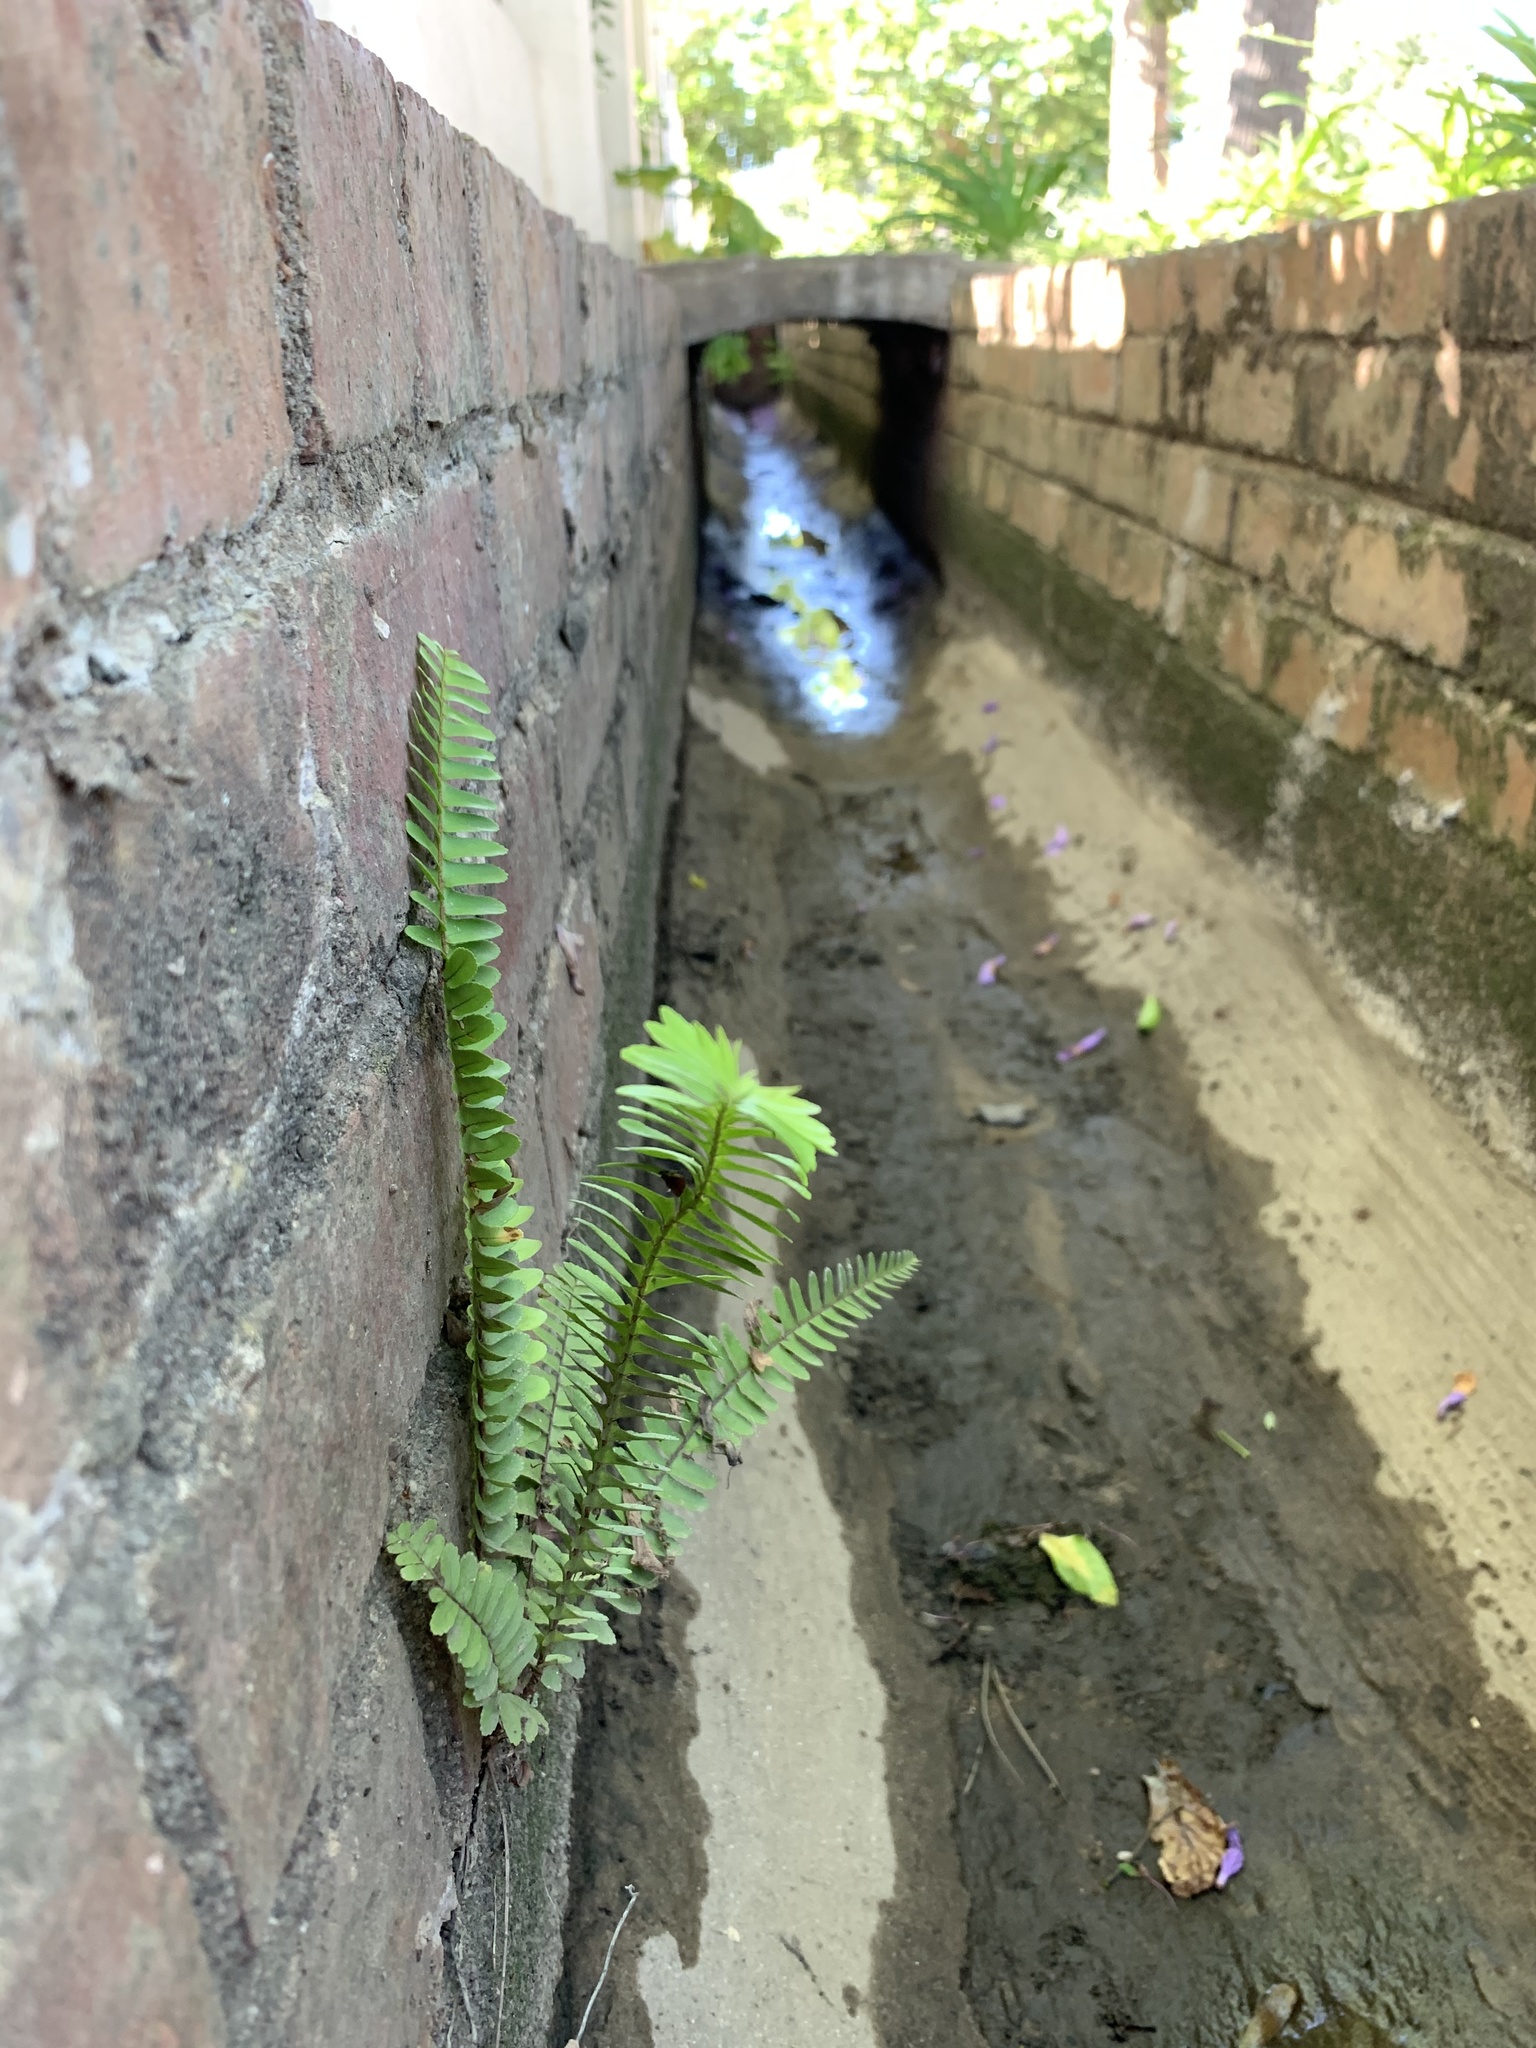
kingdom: Plantae
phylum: Tracheophyta
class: Polypodiopsida
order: Polypodiales
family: Nephrolepidaceae
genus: Nephrolepis
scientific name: Nephrolepis cordifolia
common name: Narrow swordfern
